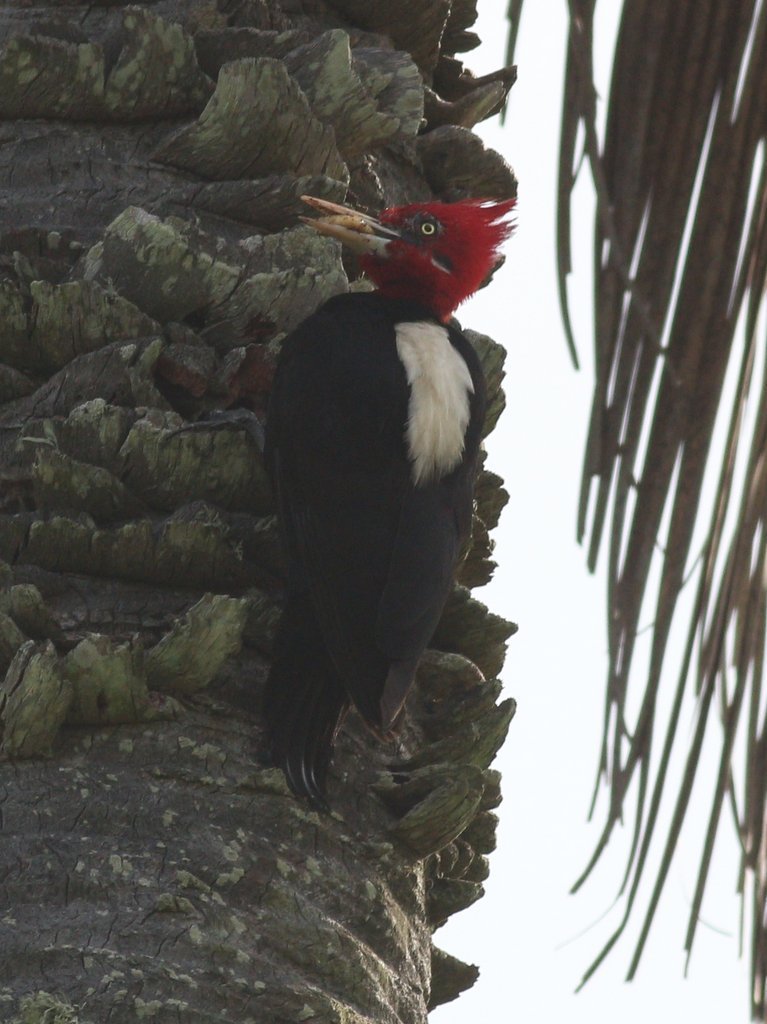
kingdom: Animalia
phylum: Chordata
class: Aves
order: Piciformes
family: Picidae
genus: Campephilus
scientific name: Campephilus leucopogon
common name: Cream-backed woodpecker
